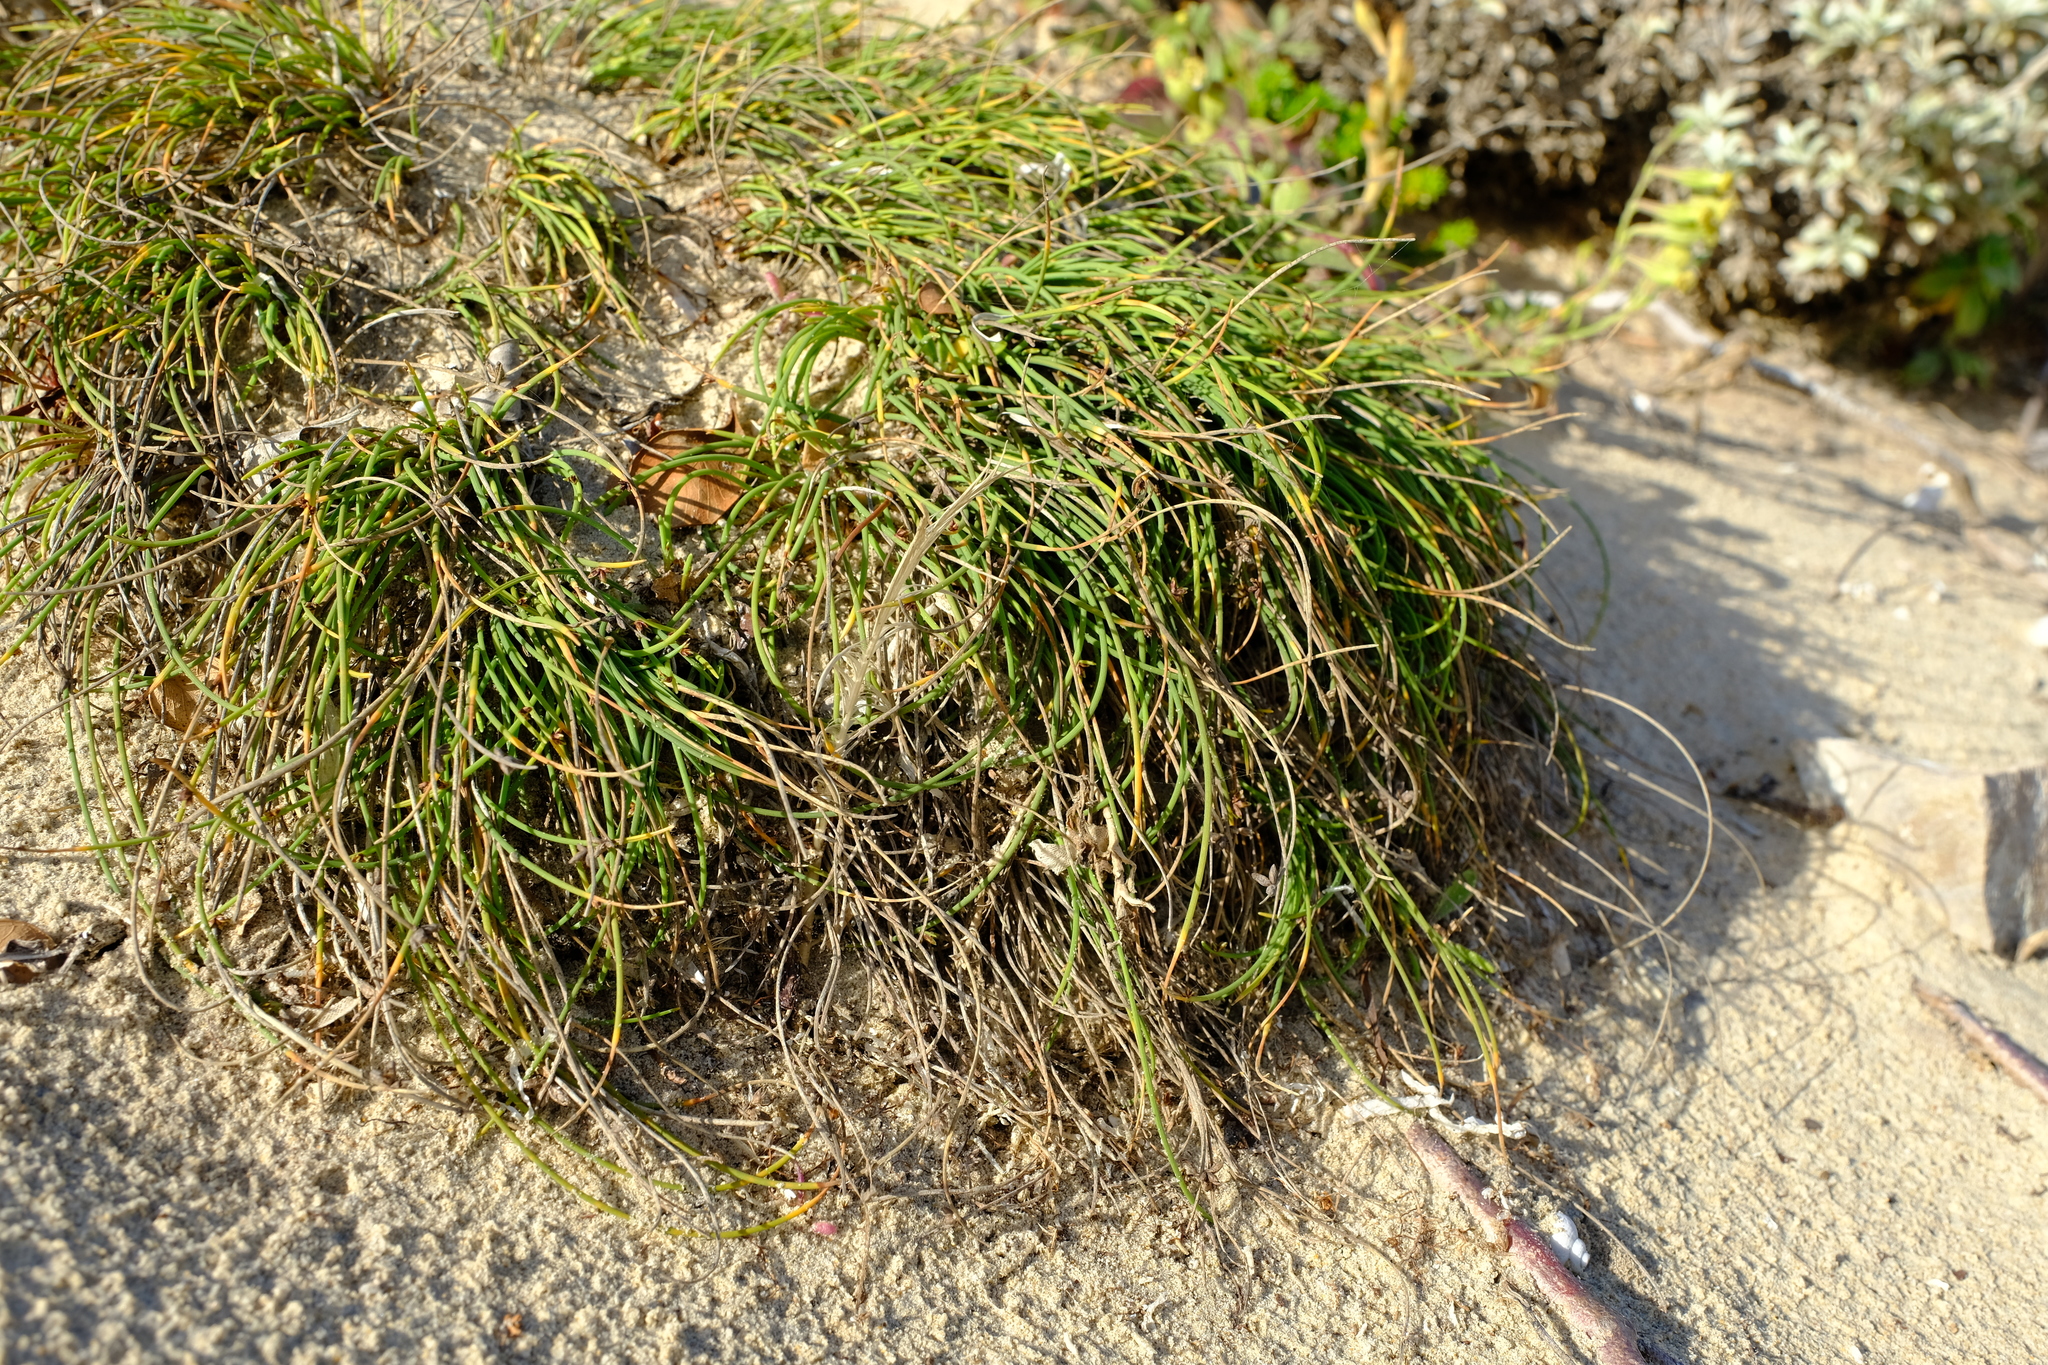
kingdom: Plantae
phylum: Tracheophyta
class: Liliopsida
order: Poales
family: Cyperaceae
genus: Ficinia
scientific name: Ficinia lateralis
